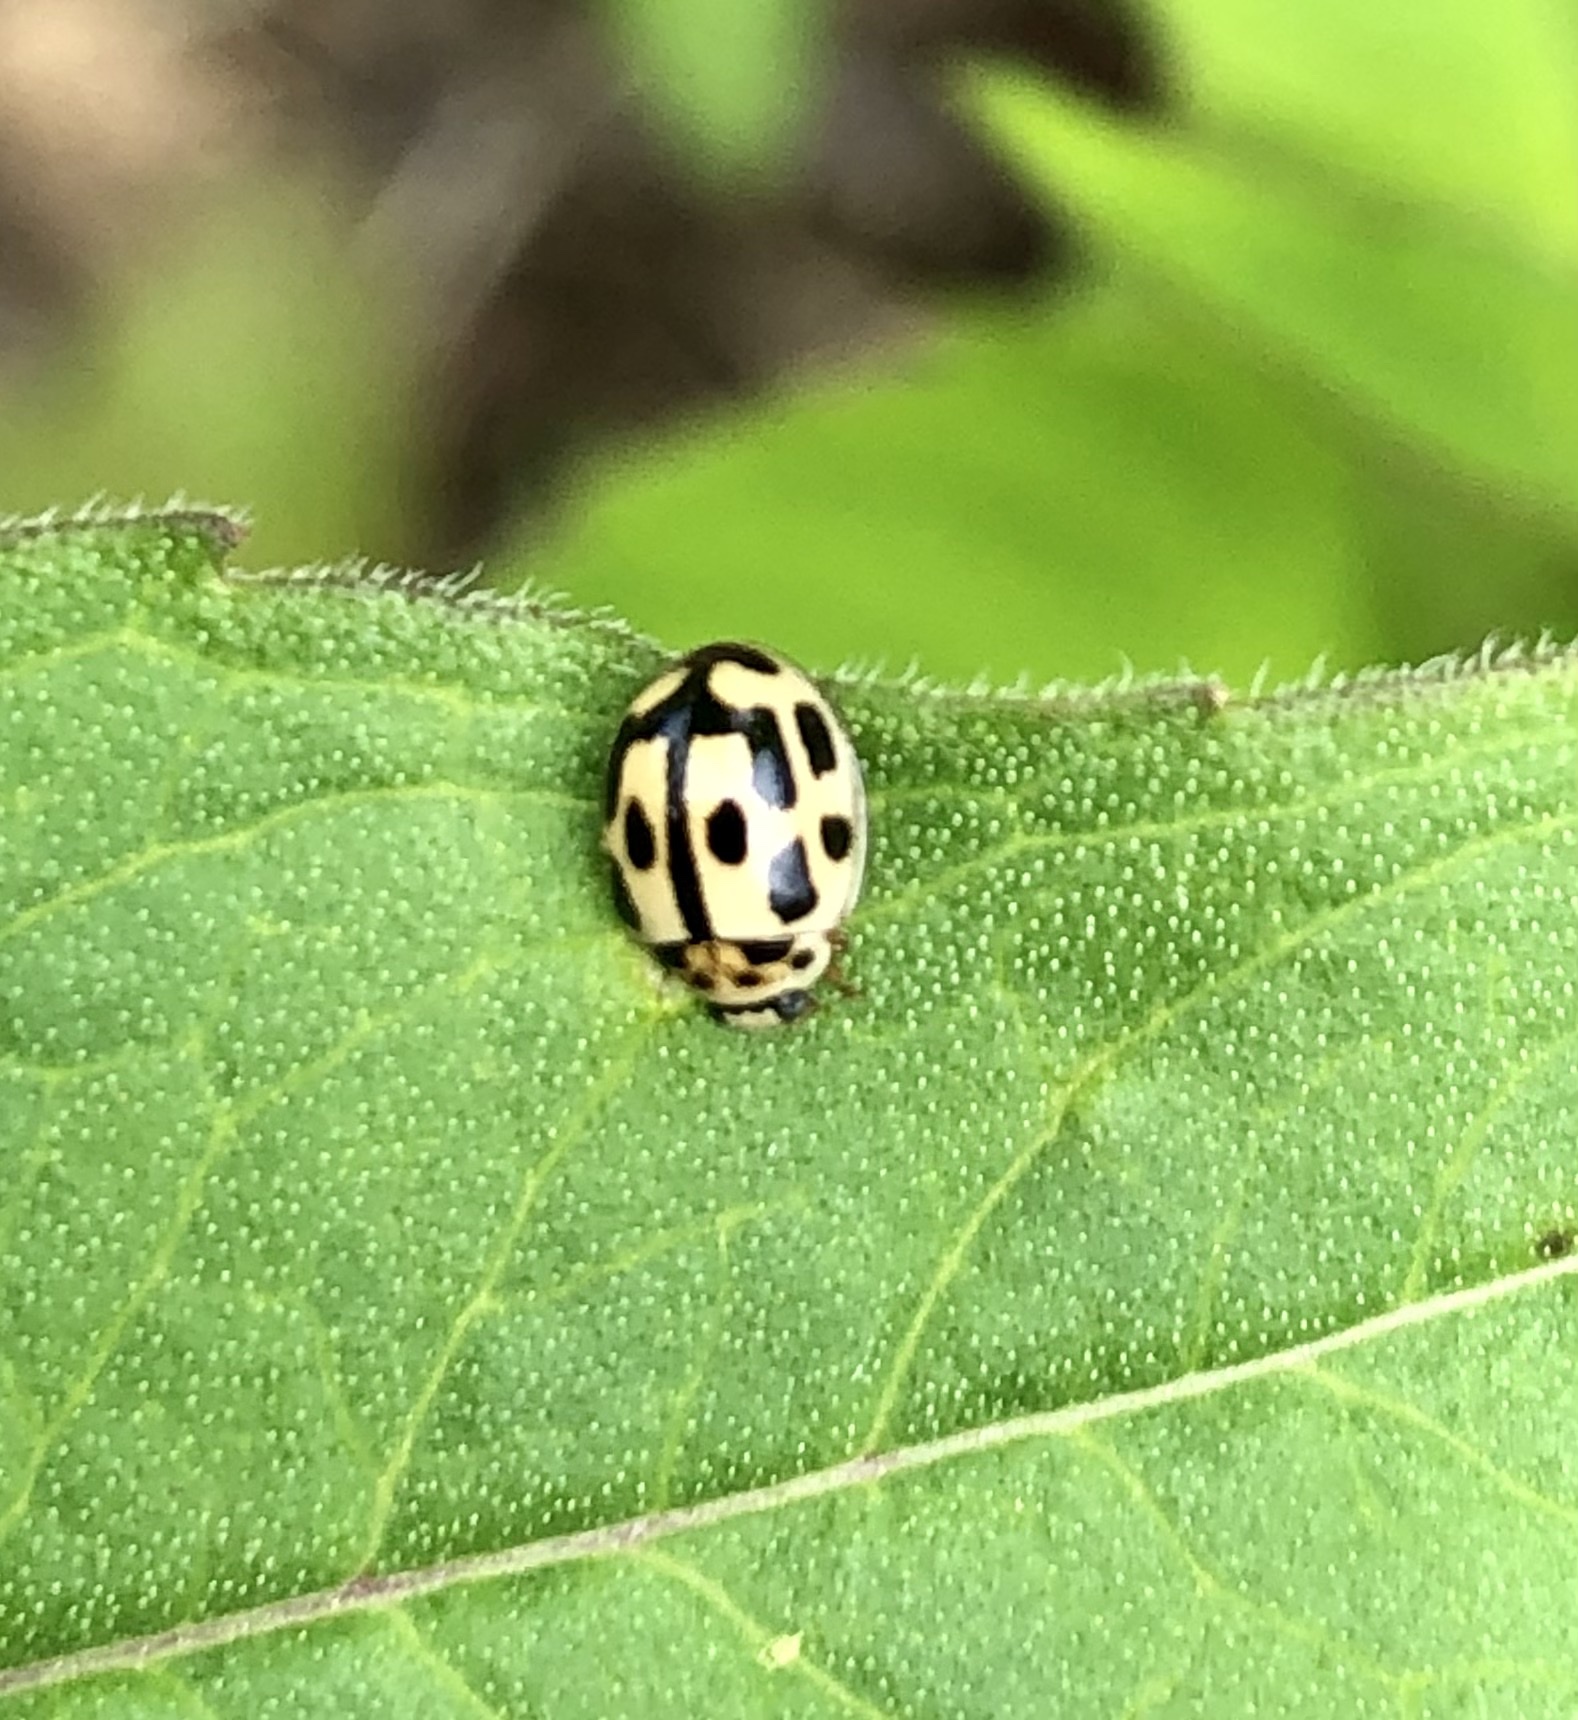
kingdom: Animalia
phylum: Arthropoda
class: Insecta
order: Coleoptera
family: Coccinellidae
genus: Propylaea
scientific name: Propylaea quatuordecimpunctata
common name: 14-spotted ladybird beetle
